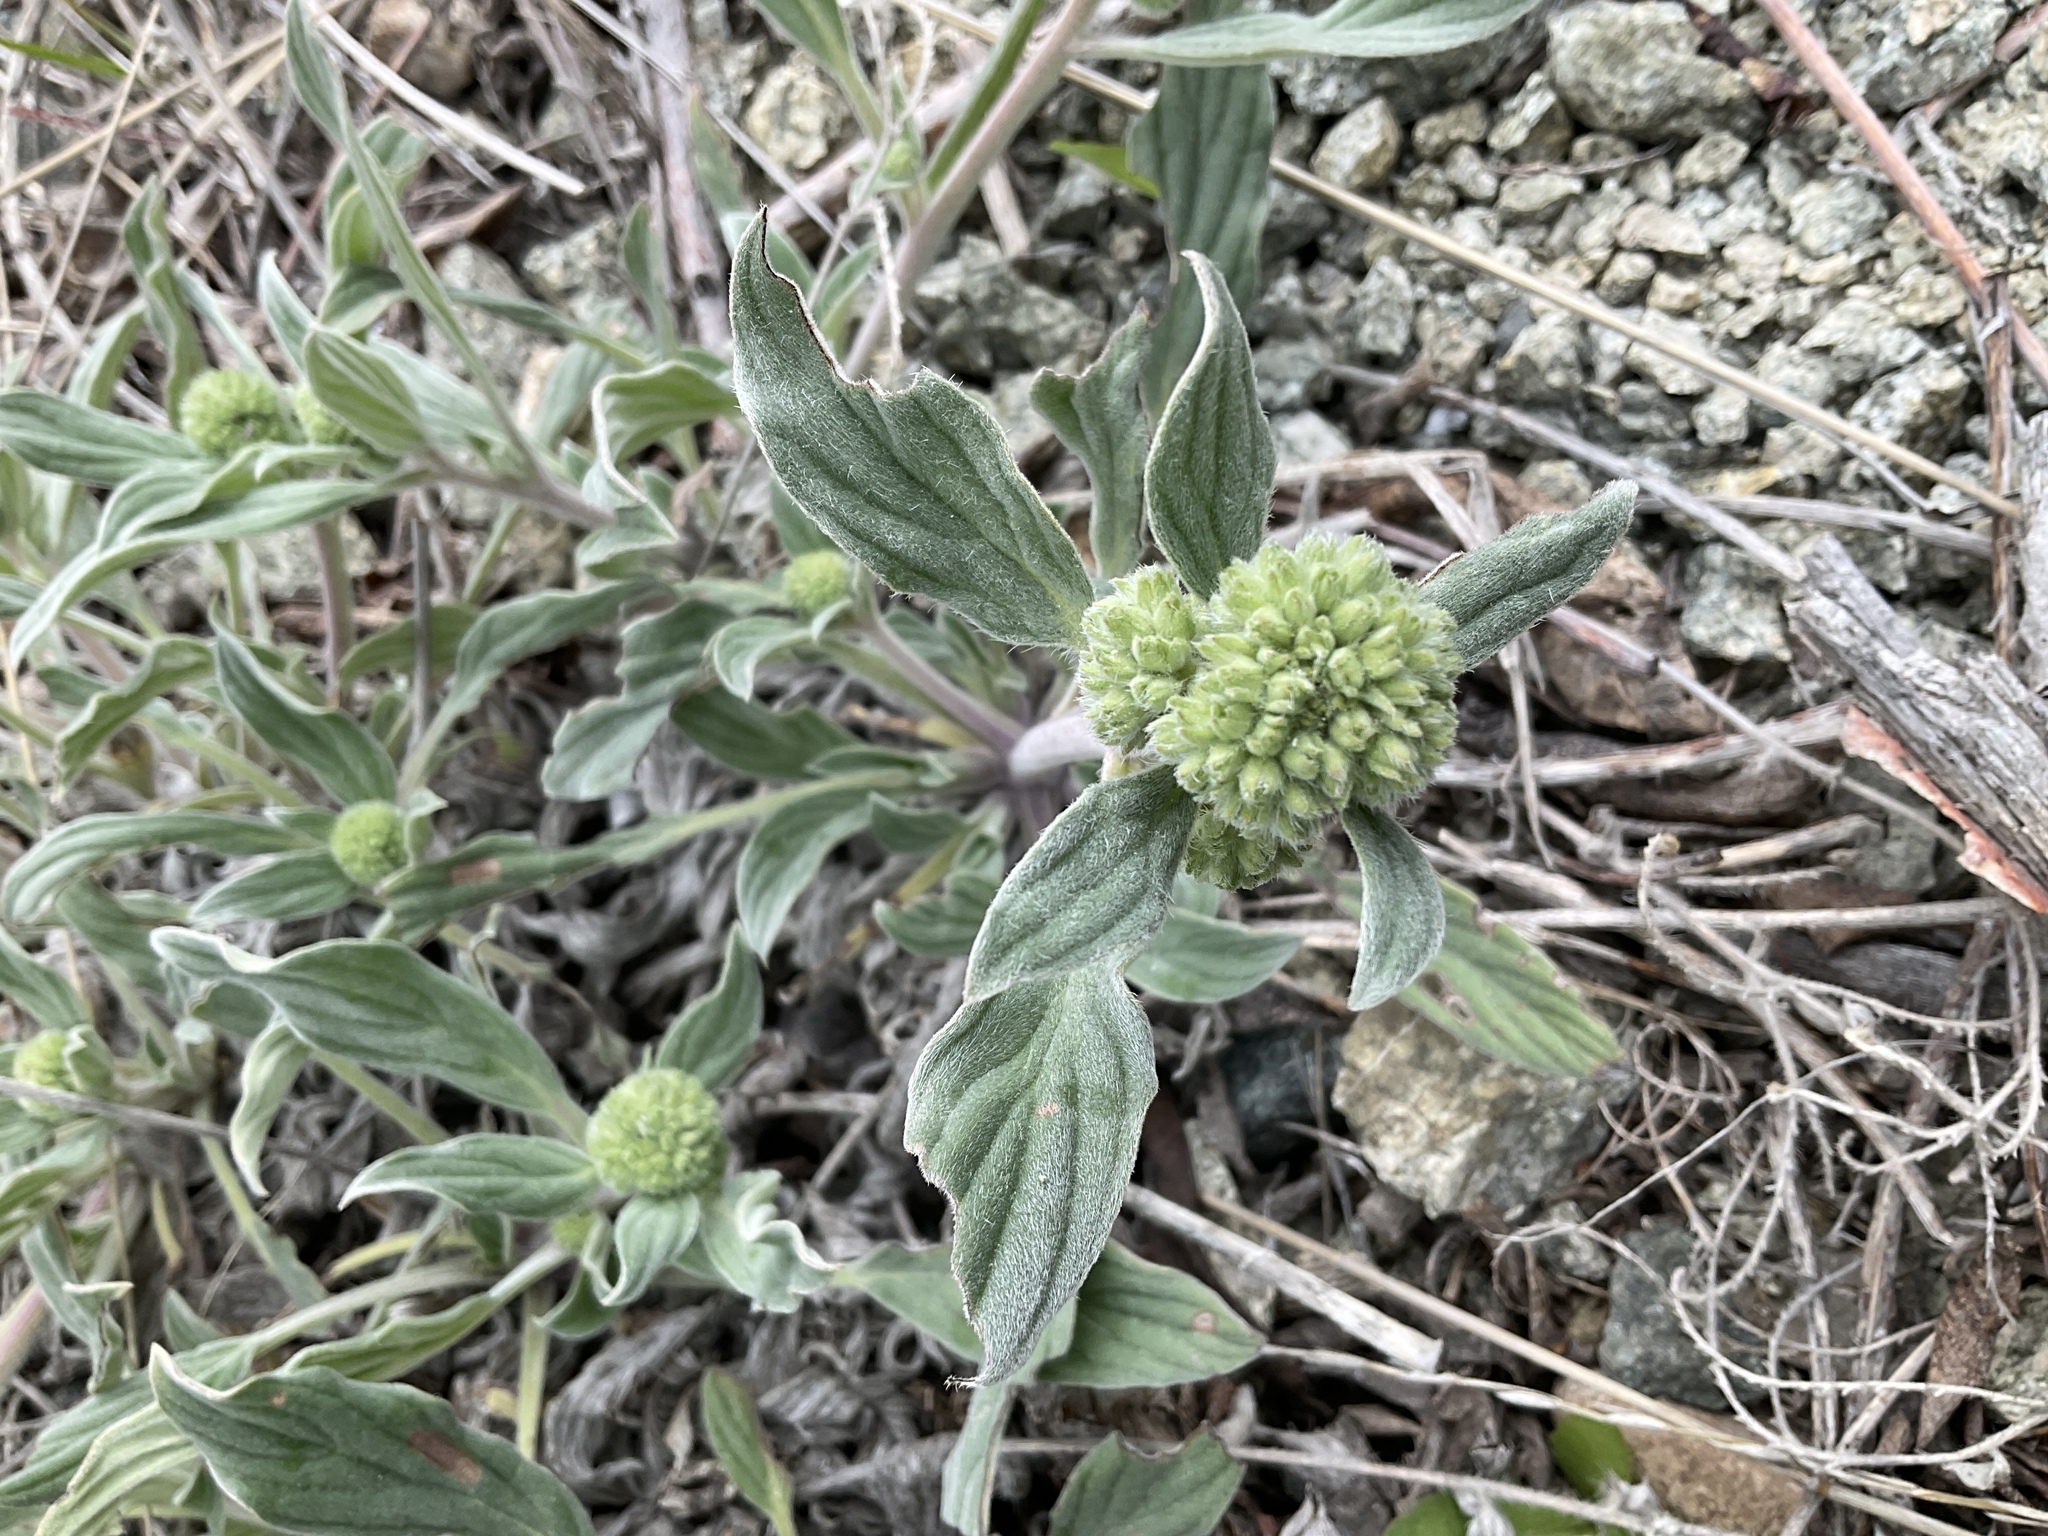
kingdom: Plantae
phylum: Tracheophyta
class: Magnoliopsida
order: Boraginales
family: Hydrophyllaceae
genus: Phacelia
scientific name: Phacelia hastata
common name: Silver-leaved phacelia
